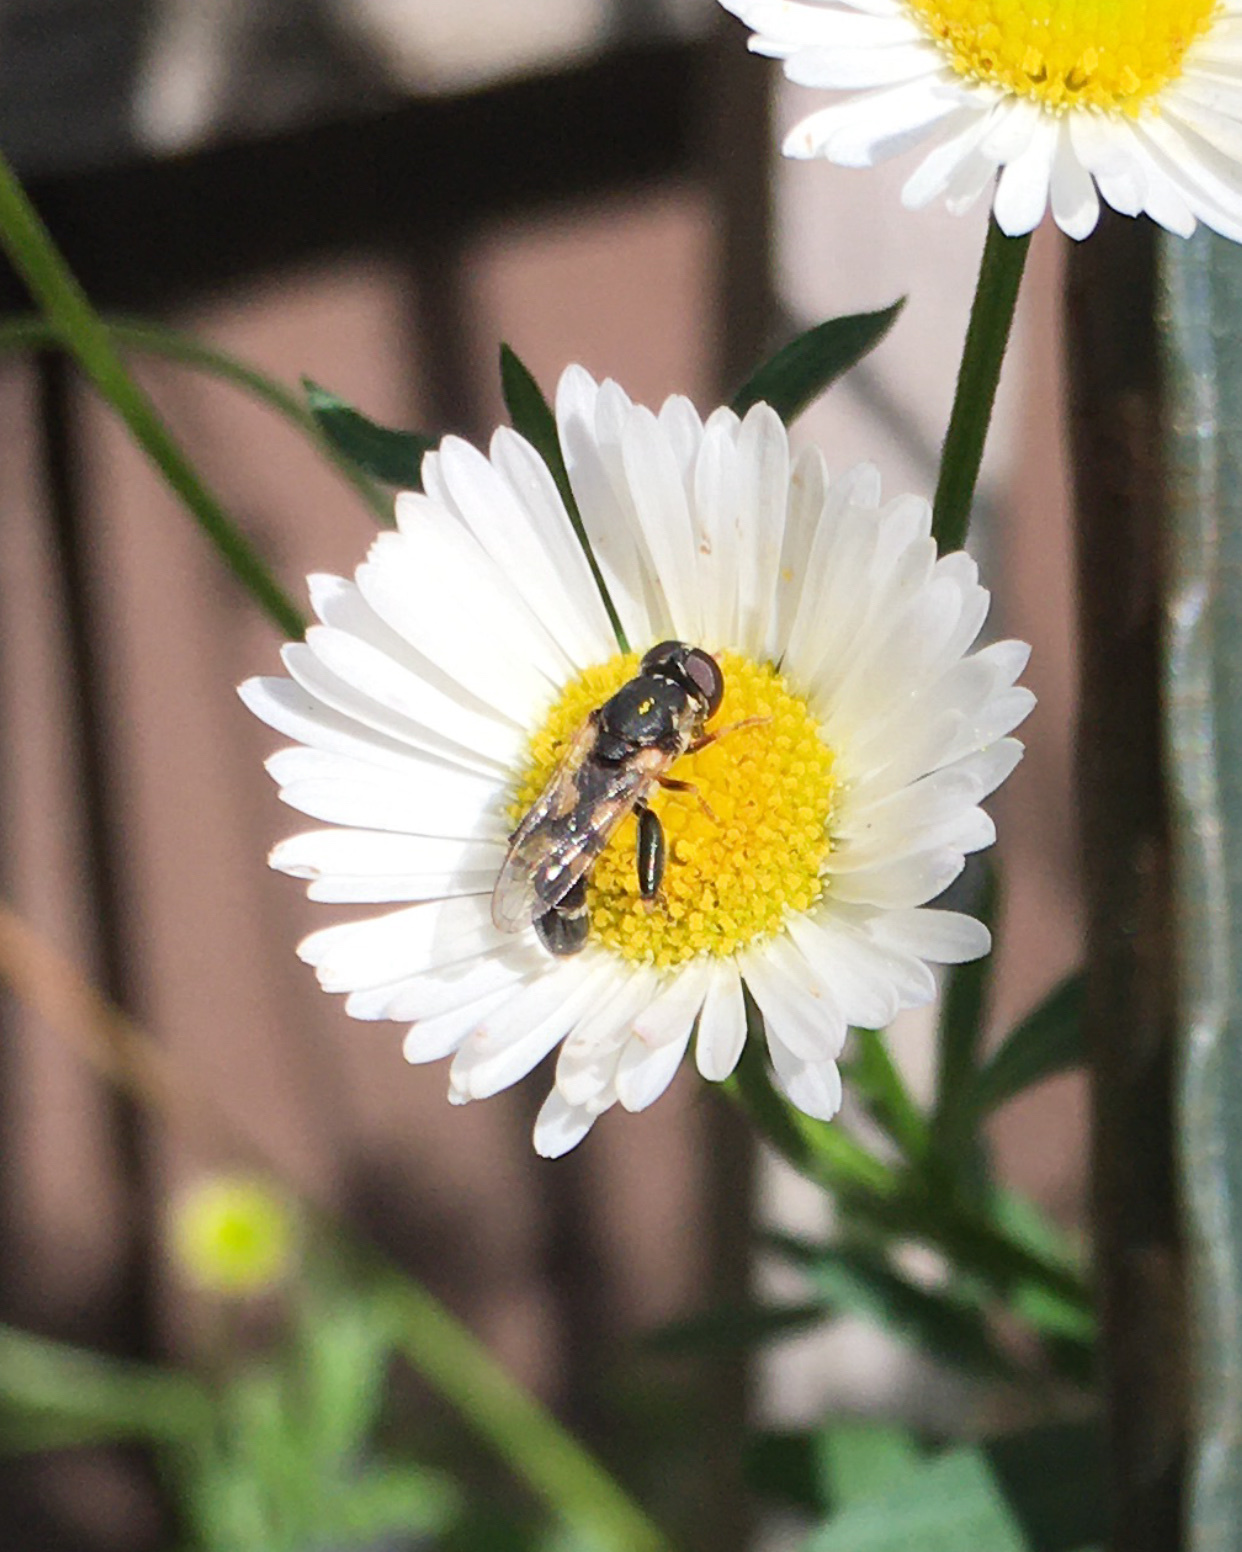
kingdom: Animalia
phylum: Arthropoda
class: Insecta
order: Diptera
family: Syrphidae
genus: Syritta
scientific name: Syritta pipiens
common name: Hover fly
